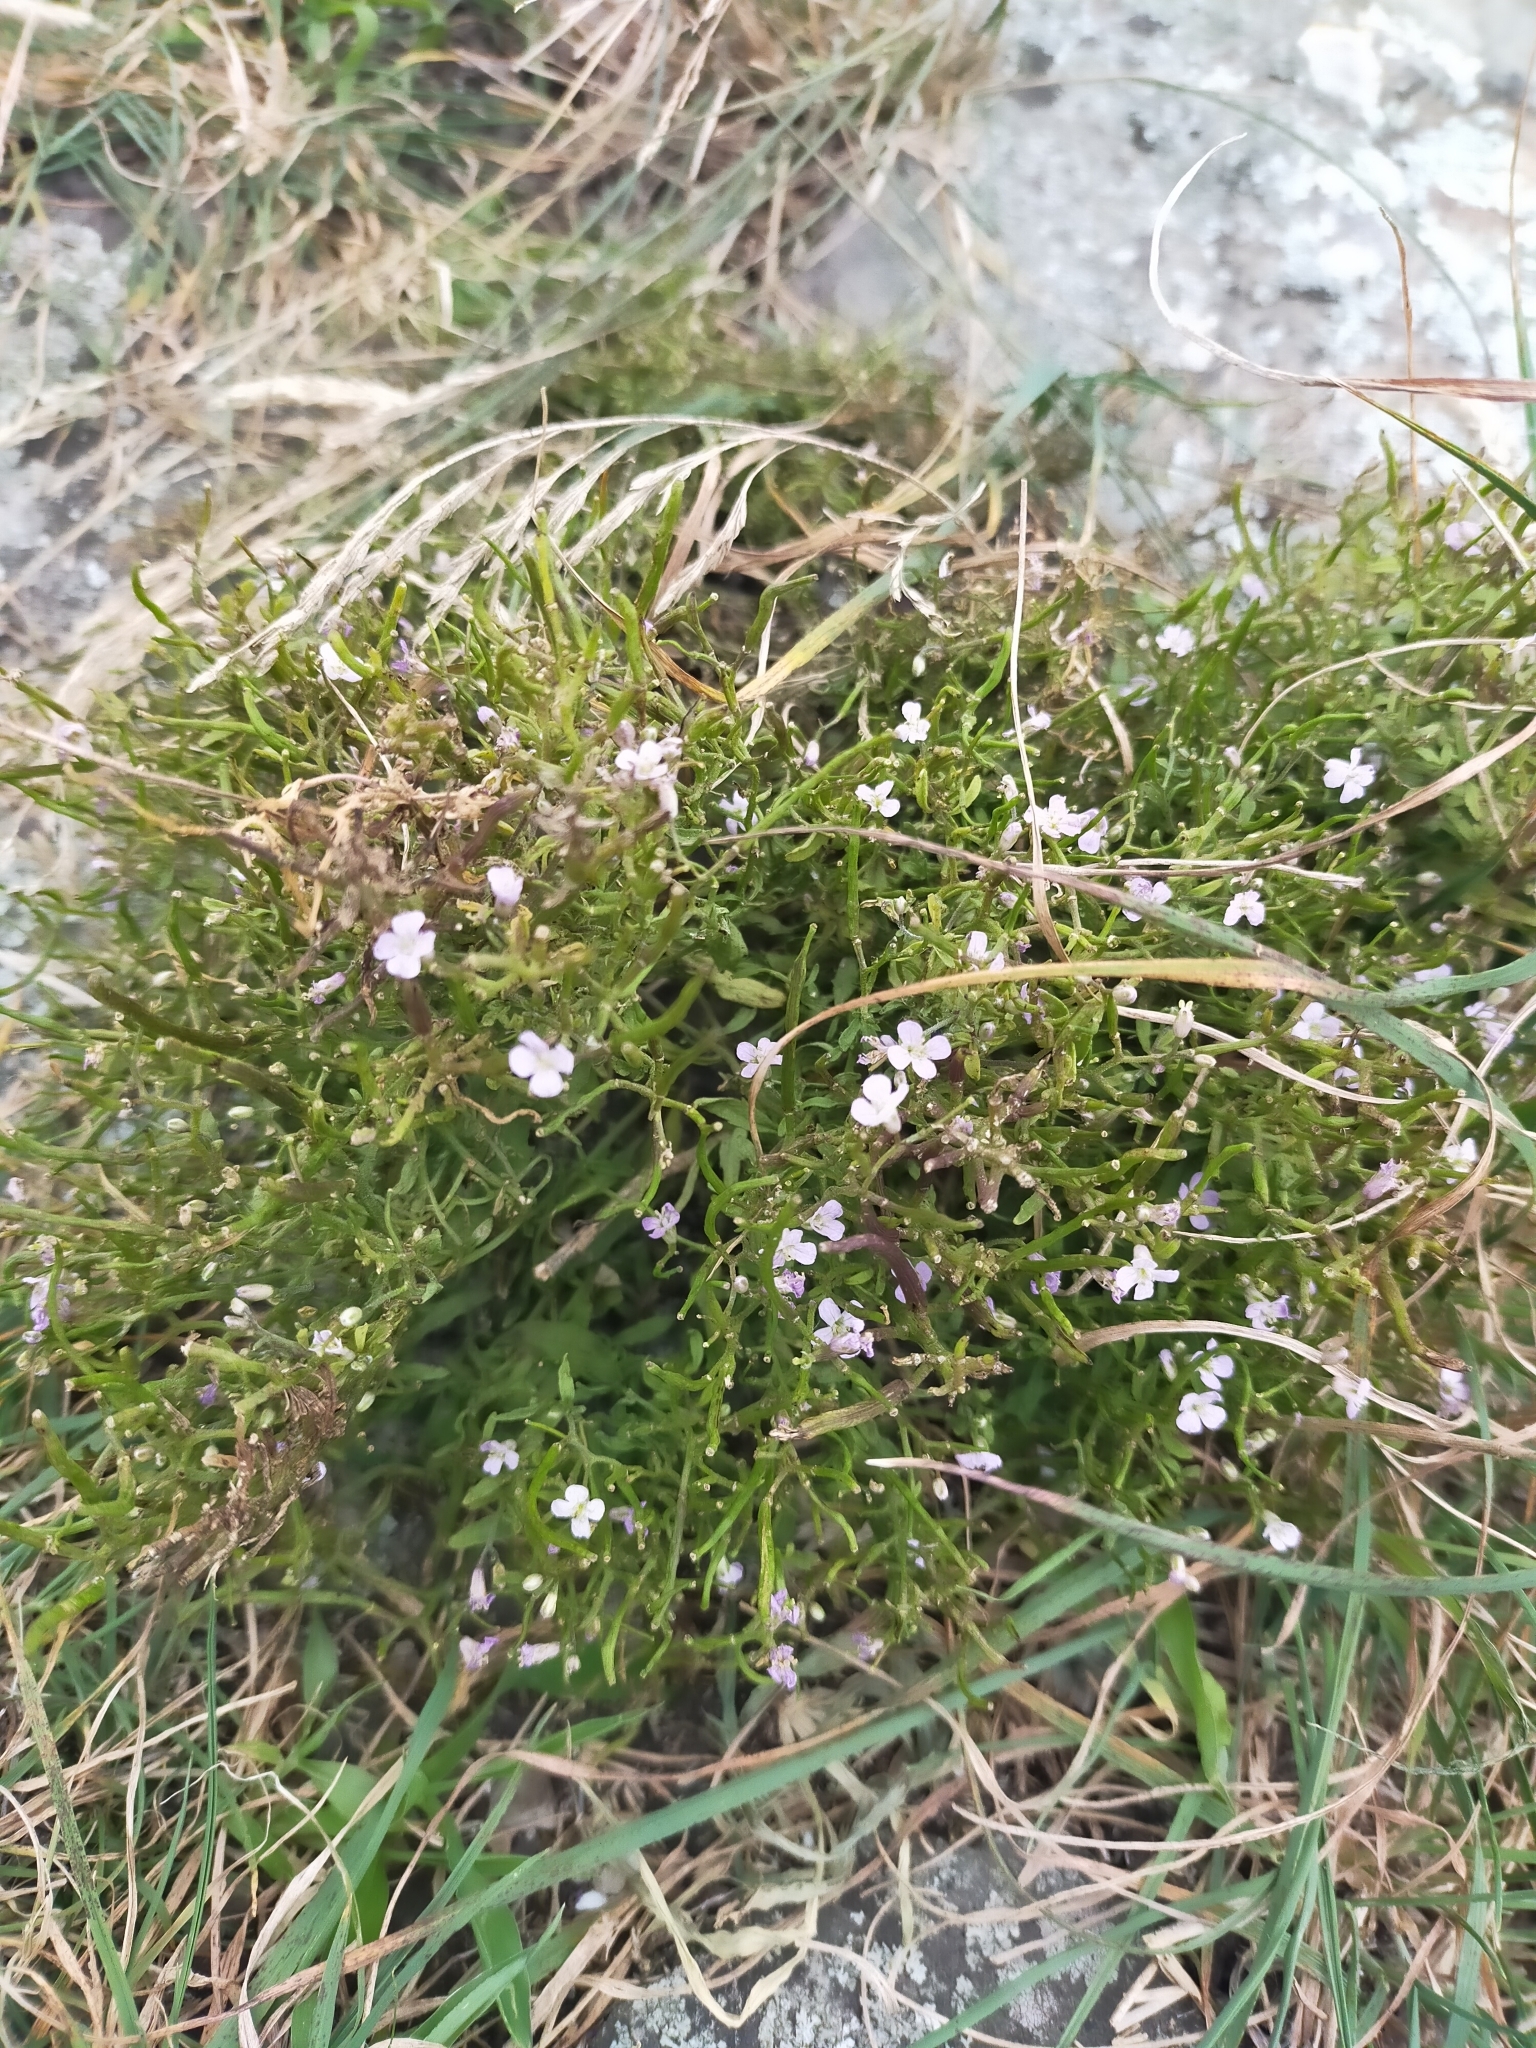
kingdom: Plantae
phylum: Tracheophyta
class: Magnoliopsida
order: Brassicales
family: Brassicaceae
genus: Dontostemon
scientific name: Dontostemon dentatus
